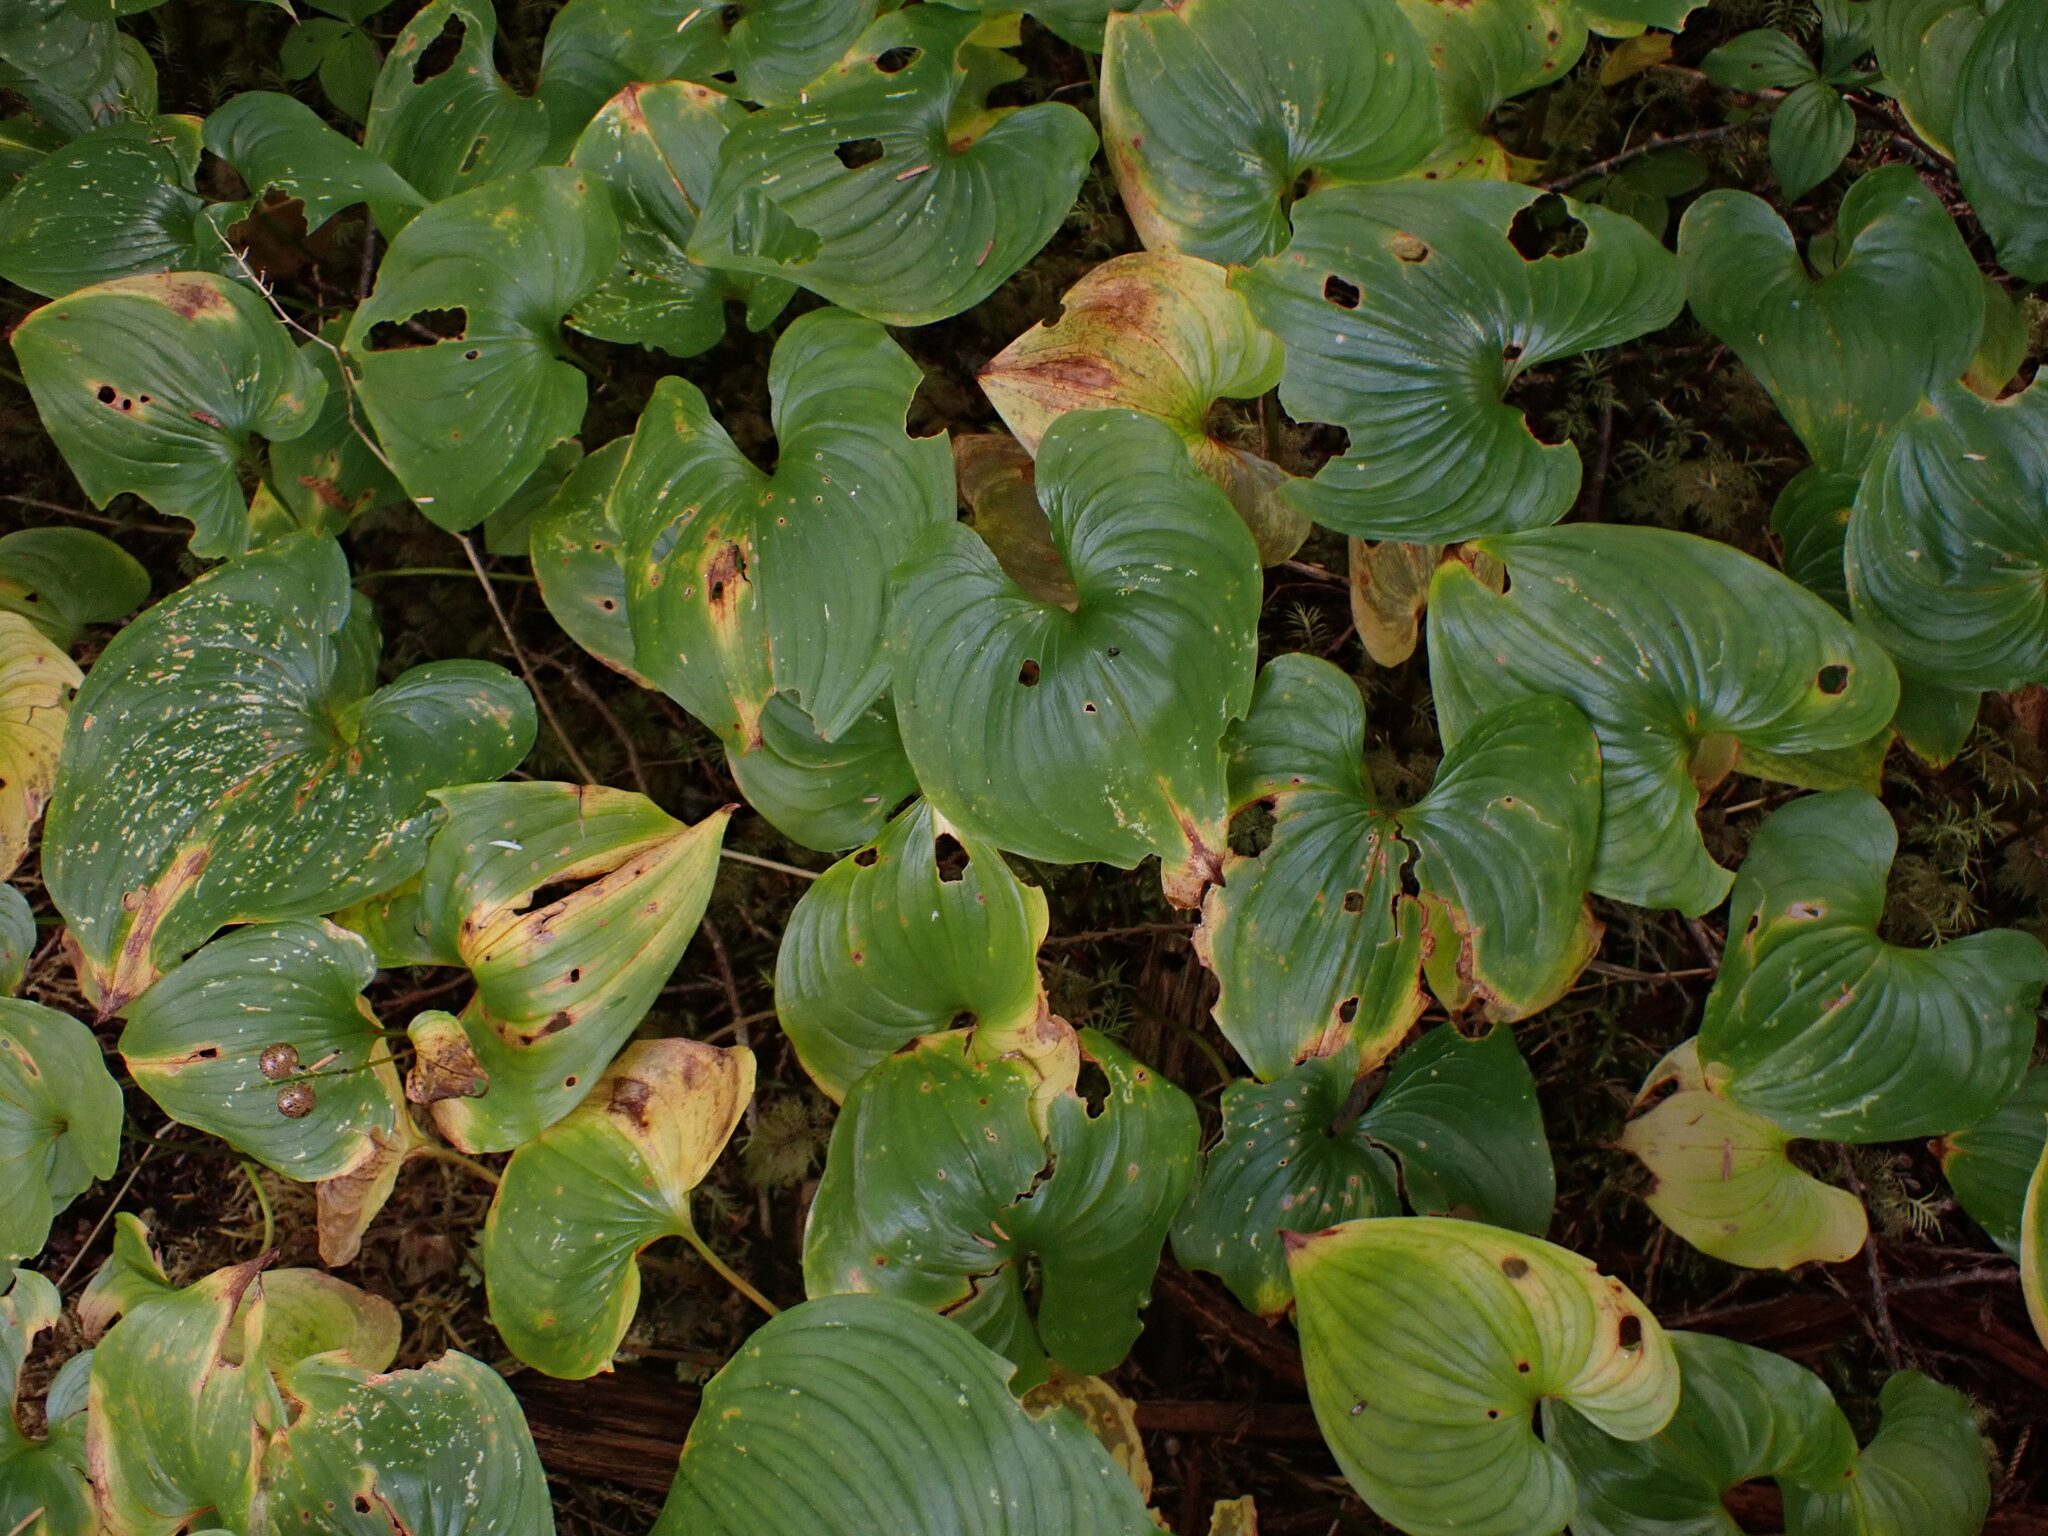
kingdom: Plantae
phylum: Tracheophyta
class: Liliopsida
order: Asparagales
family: Asparagaceae
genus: Maianthemum
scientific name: Maianthemum dilatatum
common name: False lily-of-the-valley
